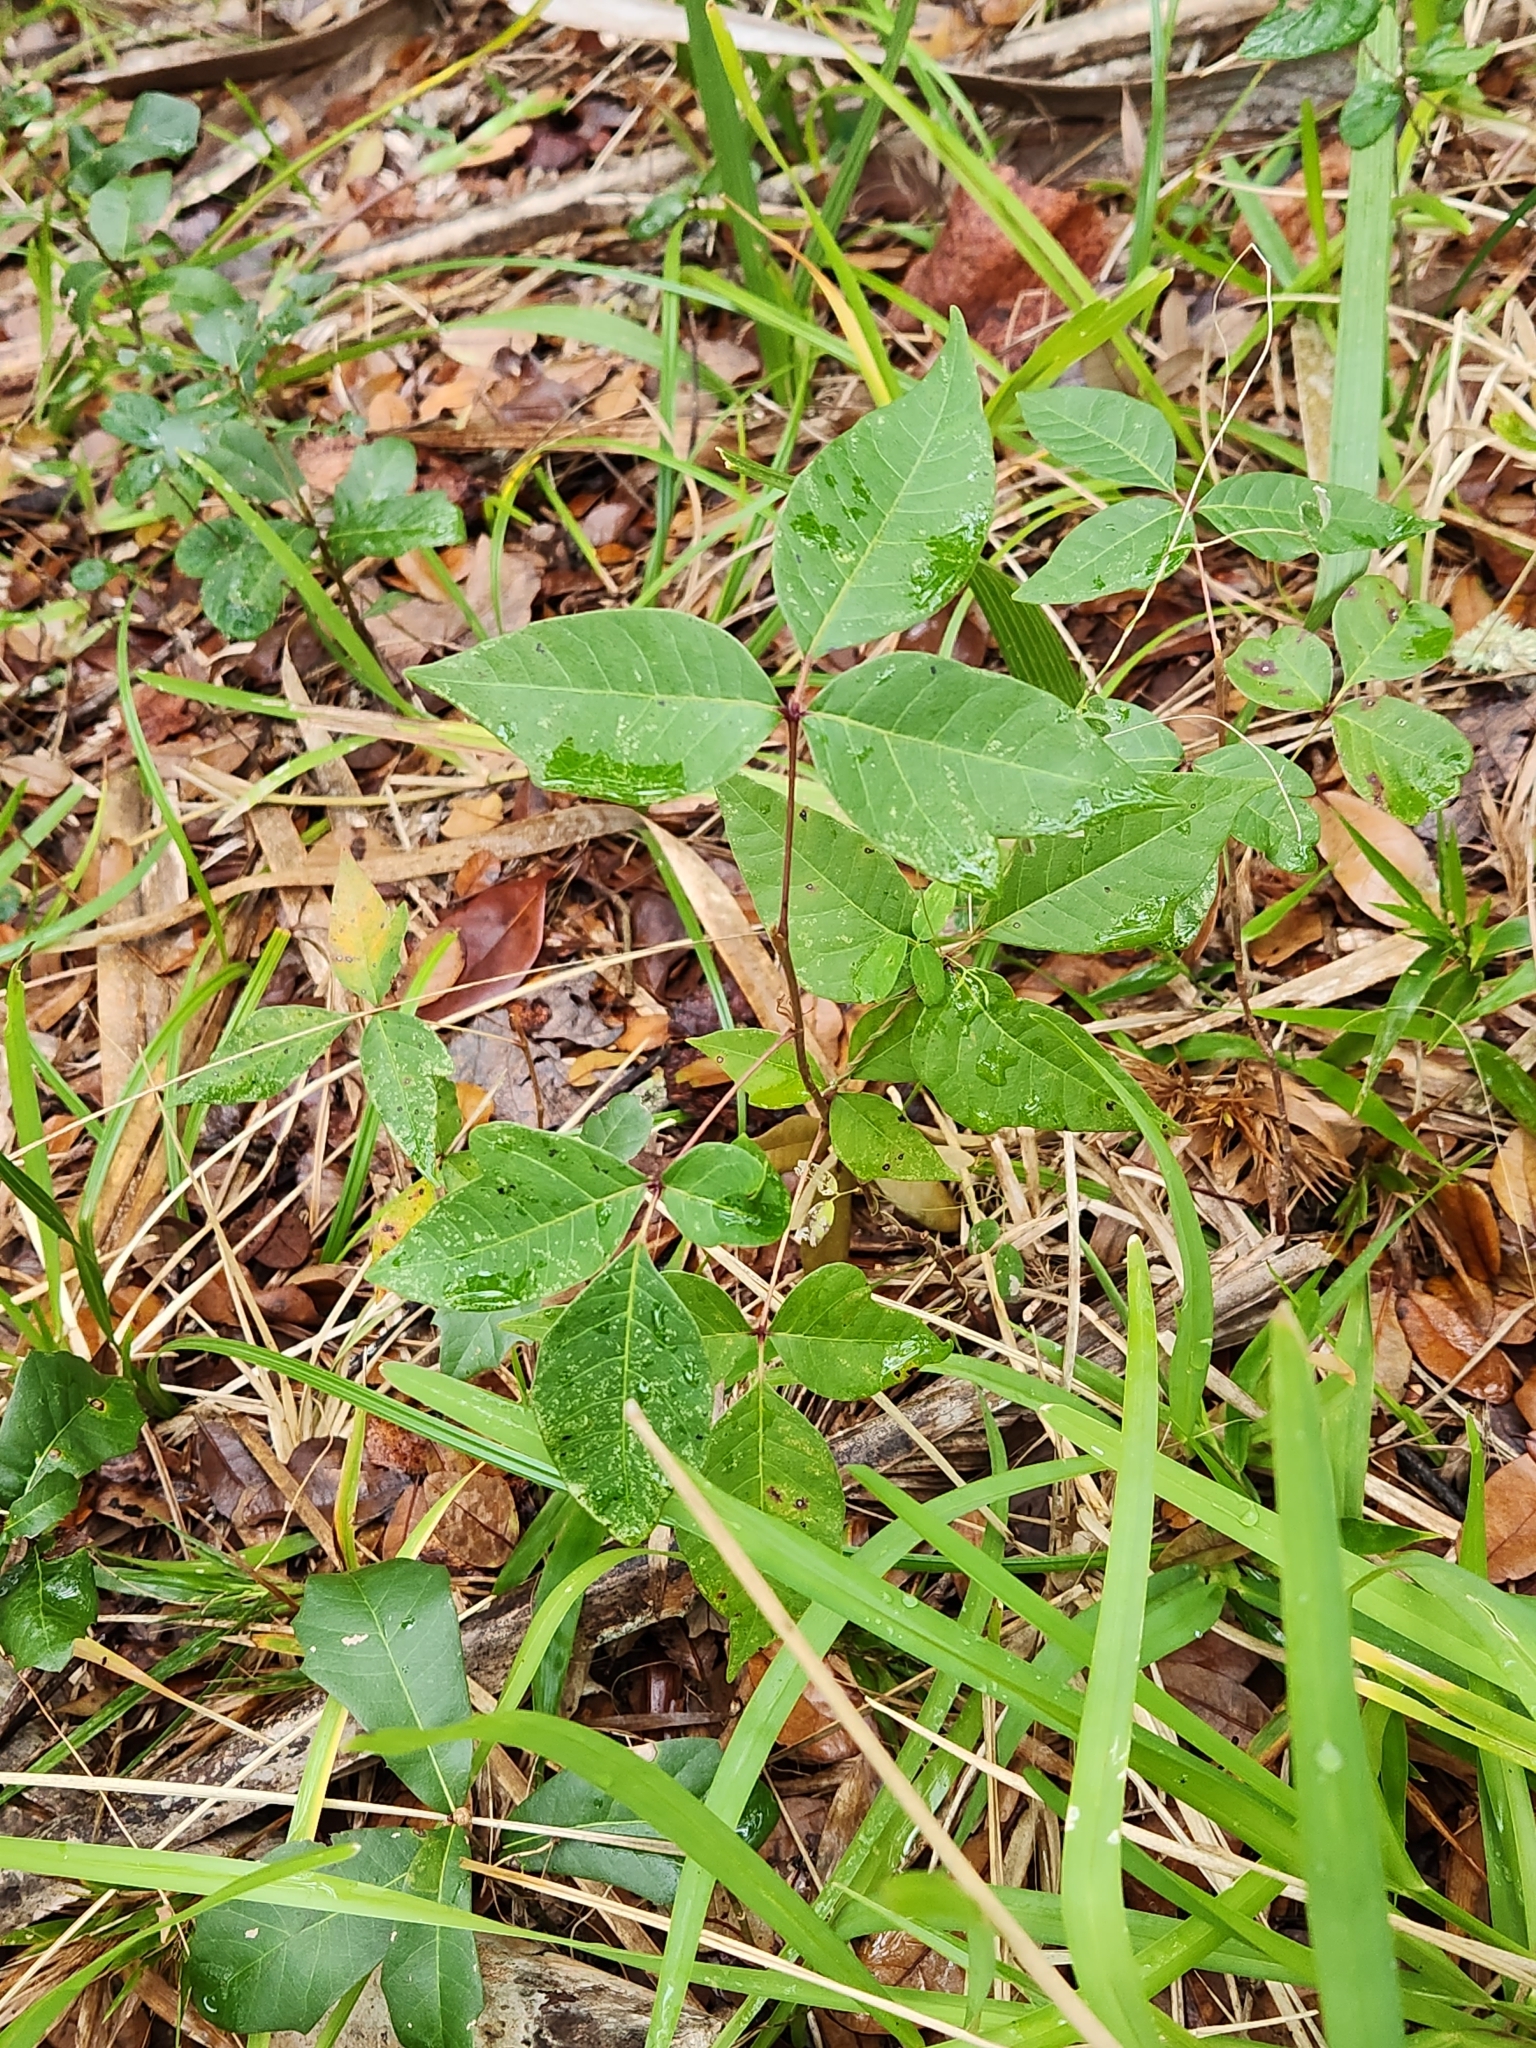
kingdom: Plantae
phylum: Tracheophyta
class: Magnoliopsida
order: Sapindales
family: Anacardiaceae
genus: Toxicodendron
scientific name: Toxicodendron radicans
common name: Poison ivy
